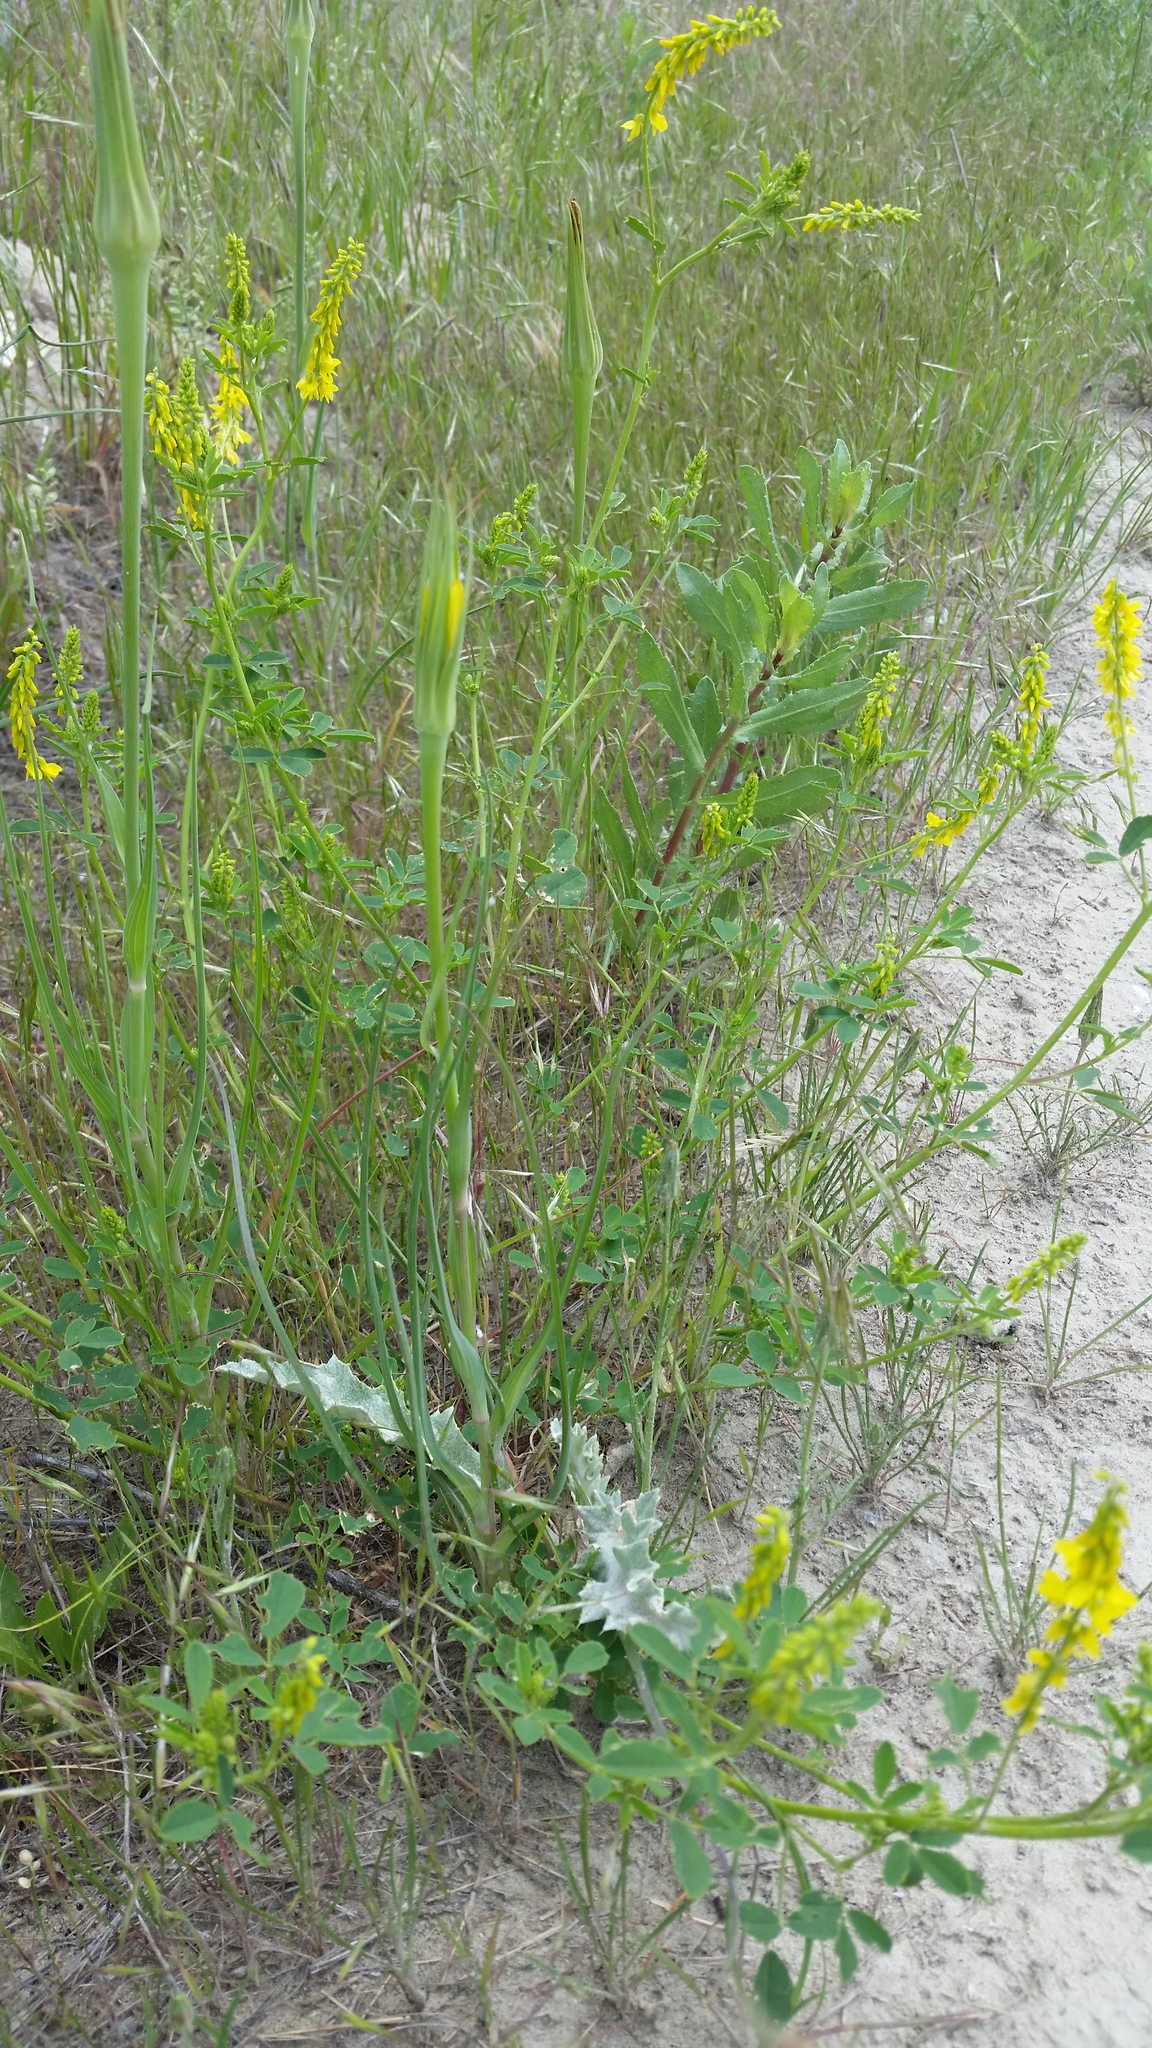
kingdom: Plantae
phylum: Tracheophyta
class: Magnoliopsida
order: Fabales
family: Fabaceae
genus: Melilotus
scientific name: Melilotus officinalis
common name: Sweetclover
